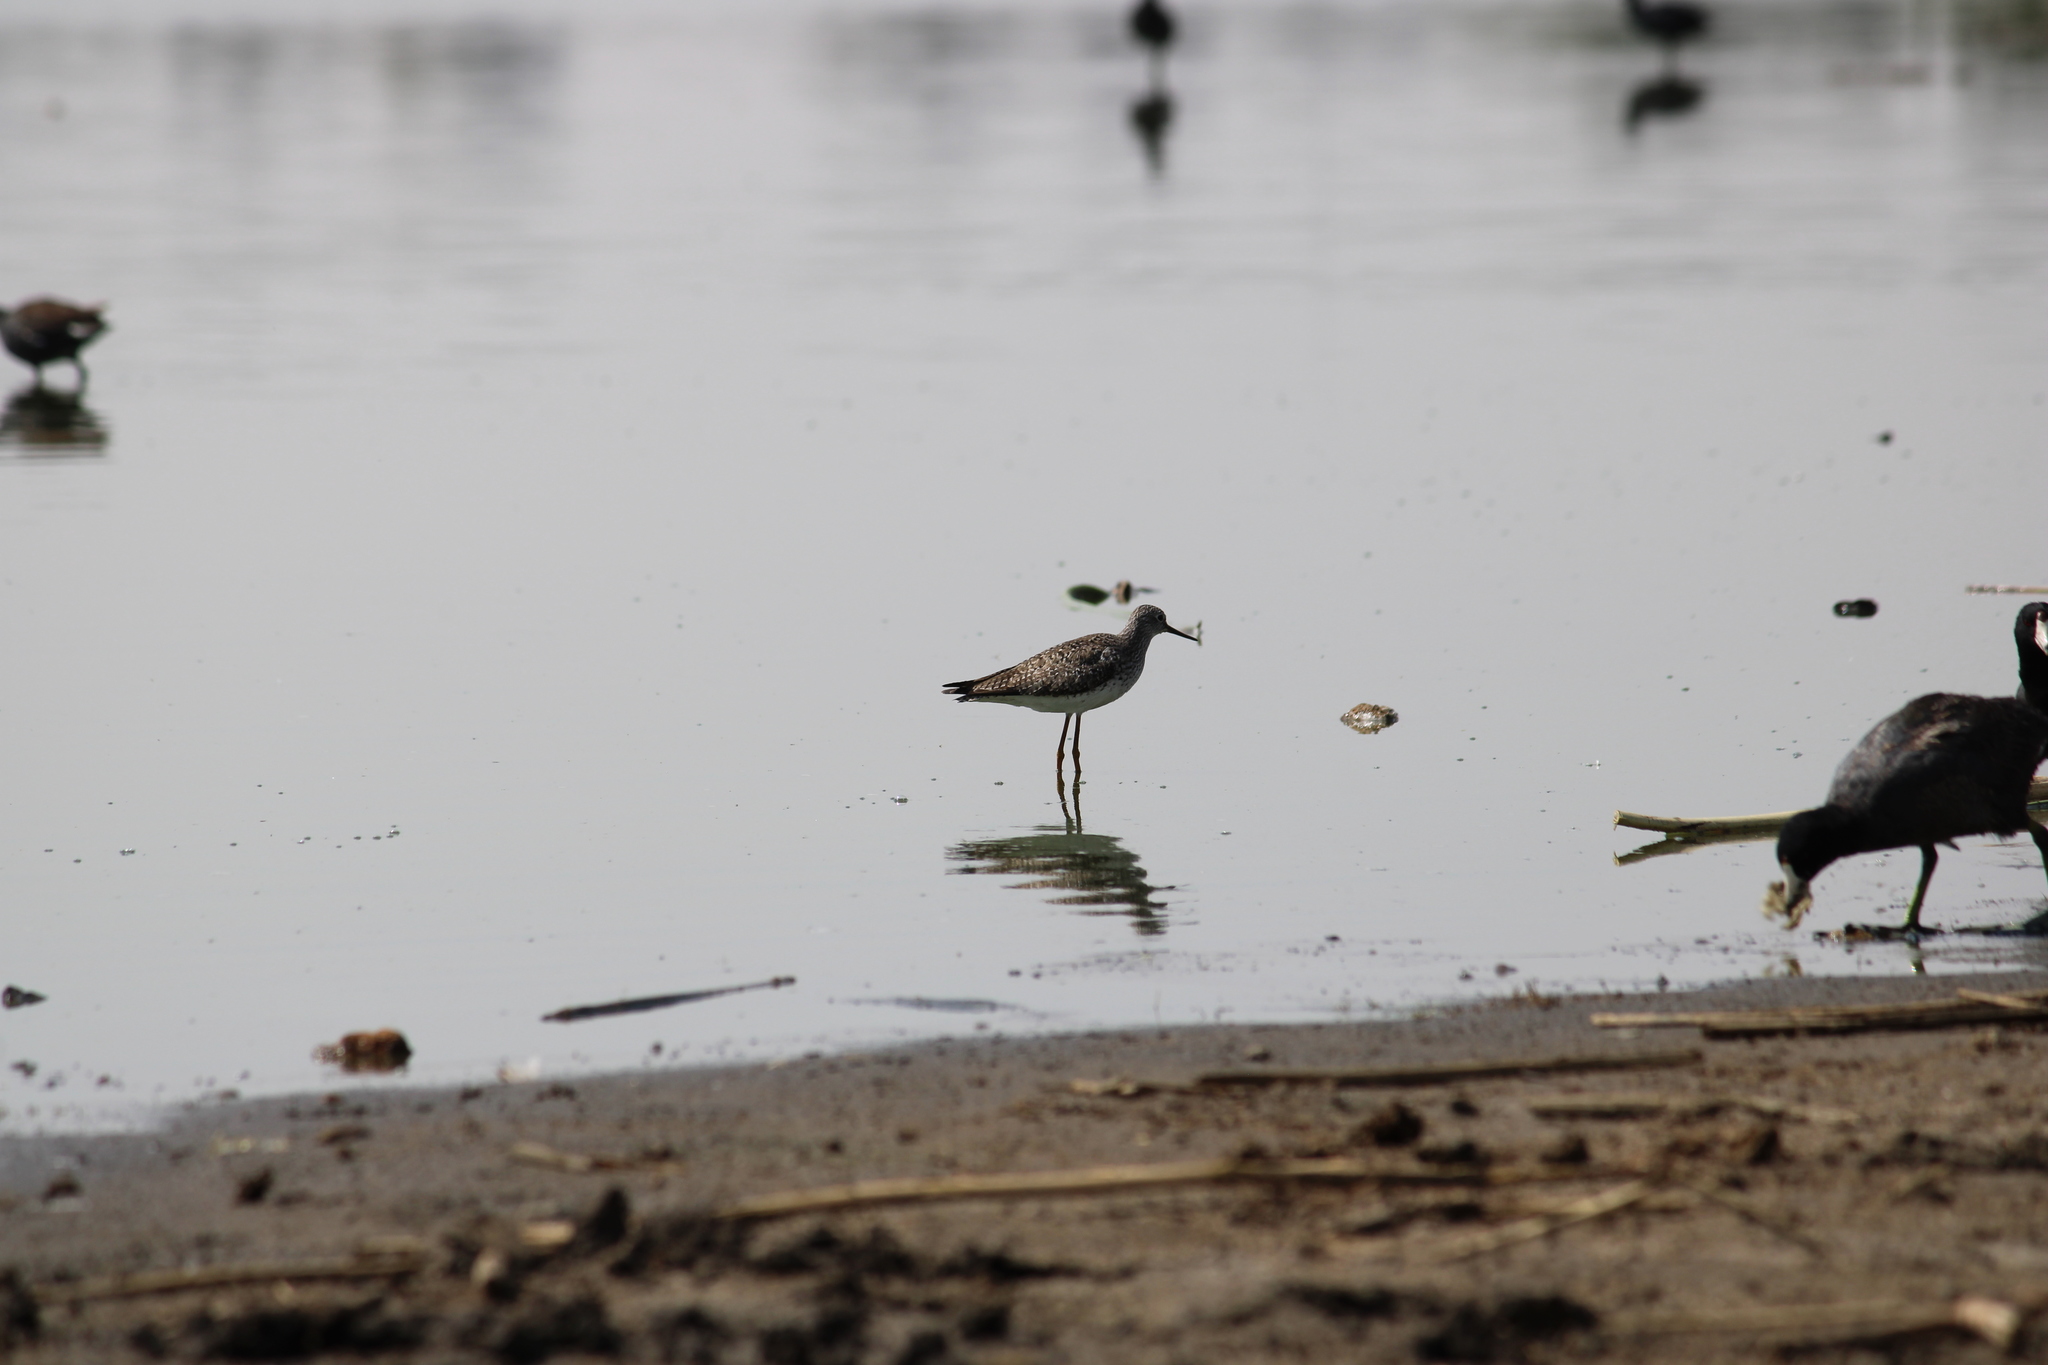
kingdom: Animalia
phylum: Chordata
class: Aves
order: Charadriiformes
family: Scolopacidae
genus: Tringa
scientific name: Tringa flavipes
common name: Lesser yellowlegs
